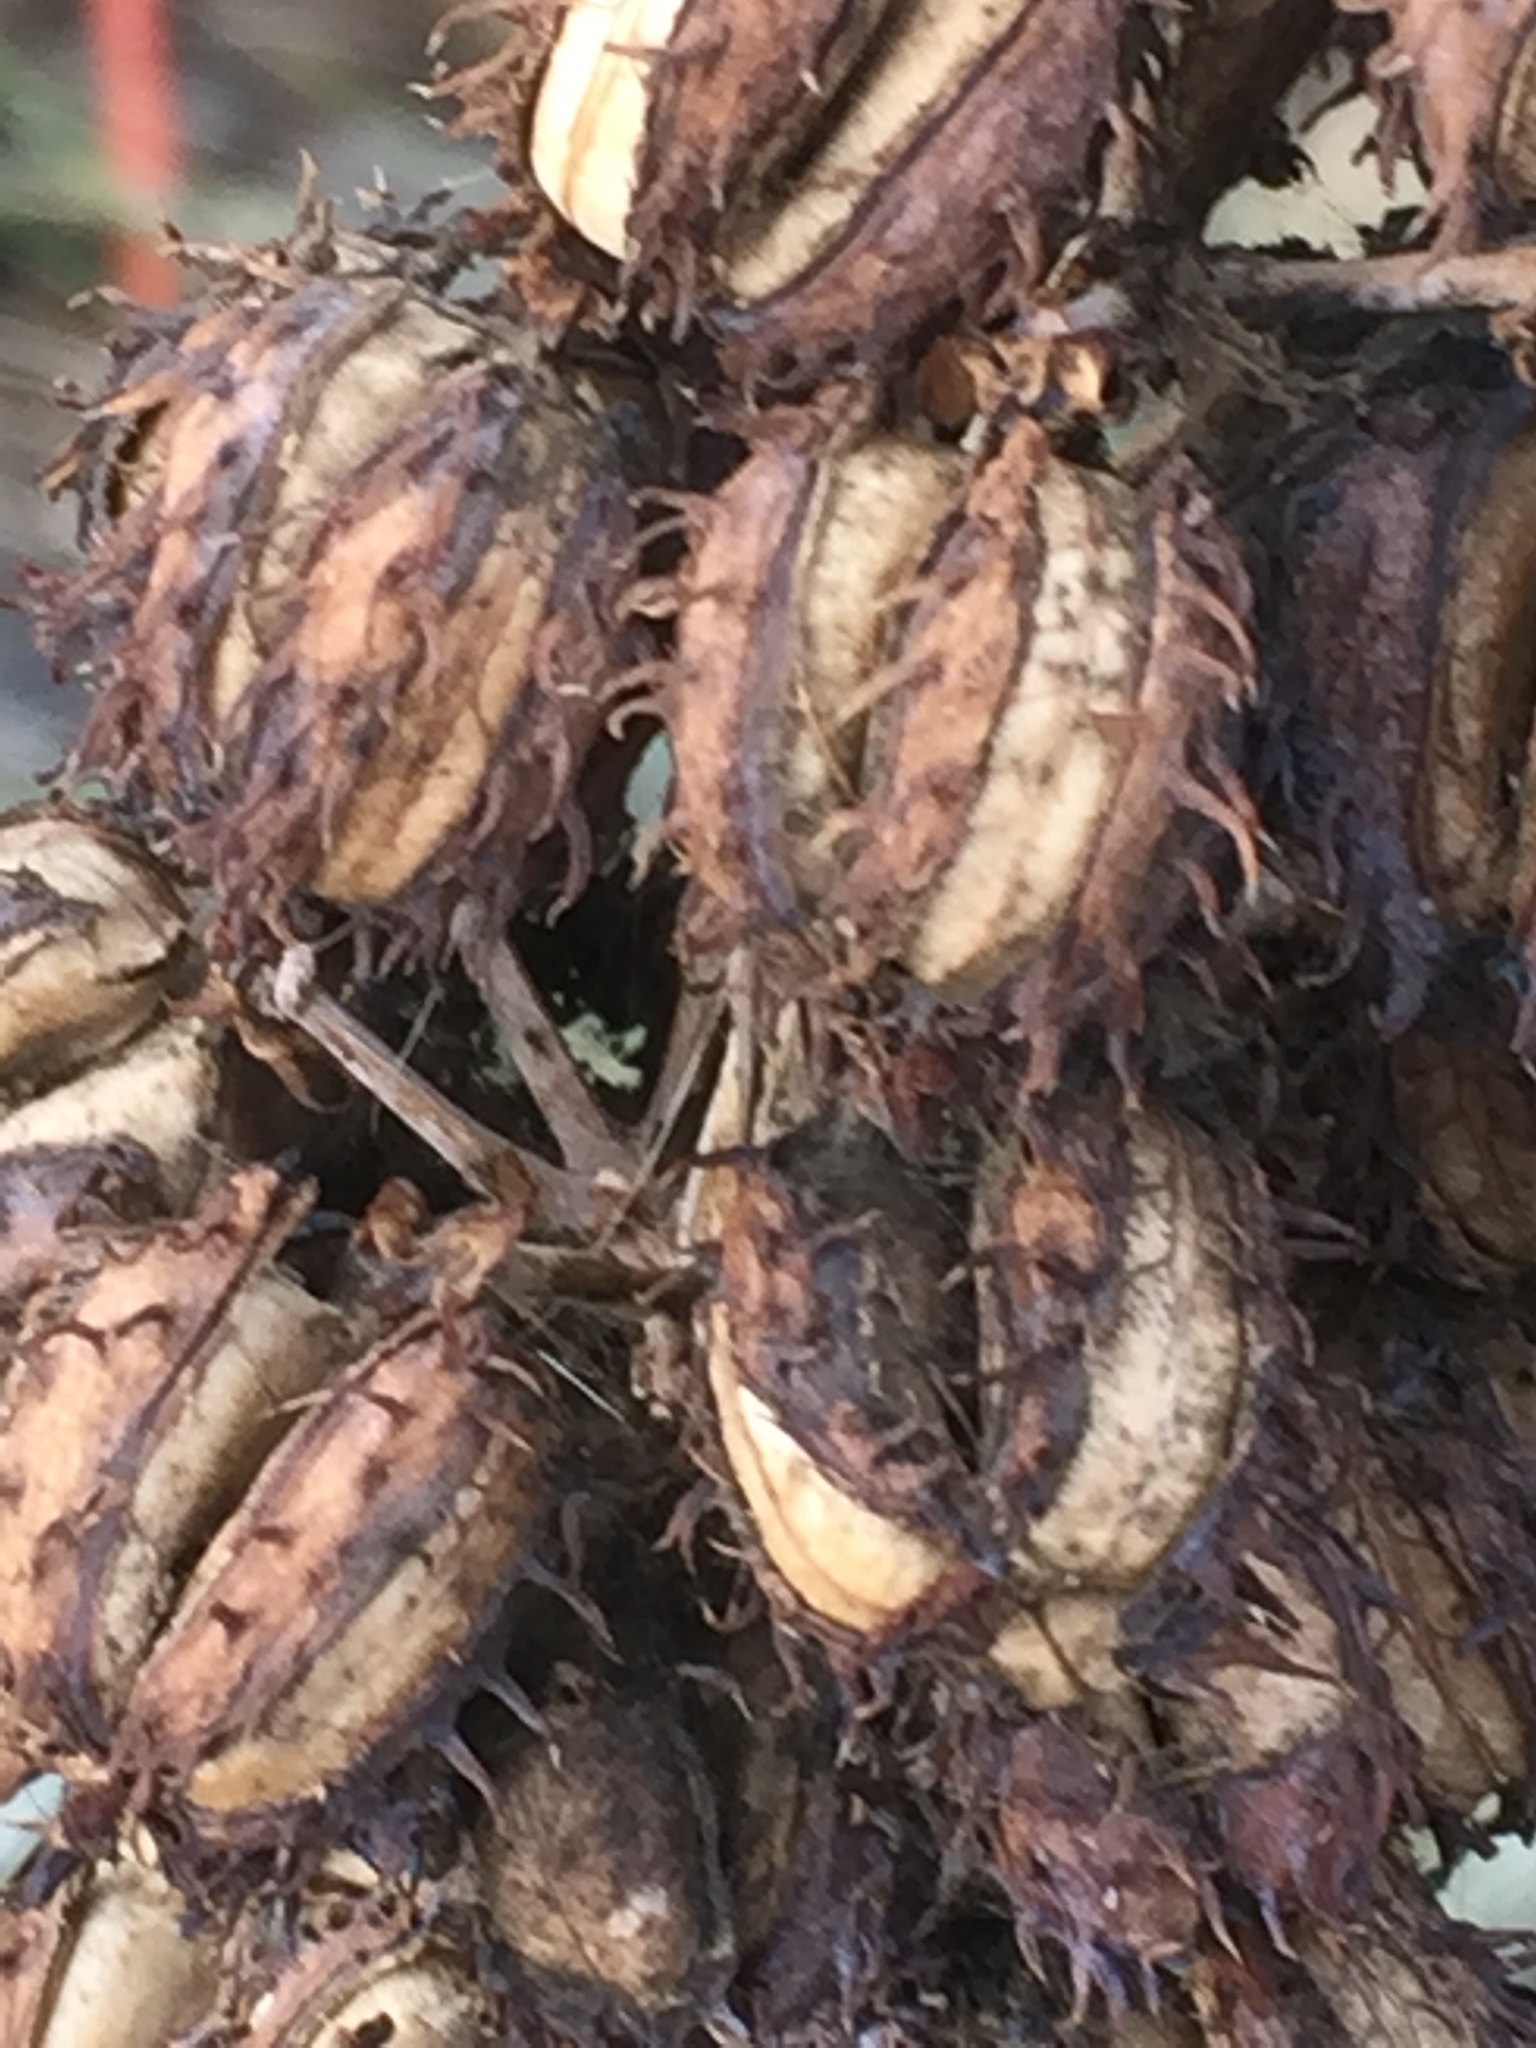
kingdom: Plantae
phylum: Tracheophyta
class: Magnoliopsida
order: Malpighiales
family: Euphorbiaceae
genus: Ricinus
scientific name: Ricinus communis
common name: Castor-oil-plant
